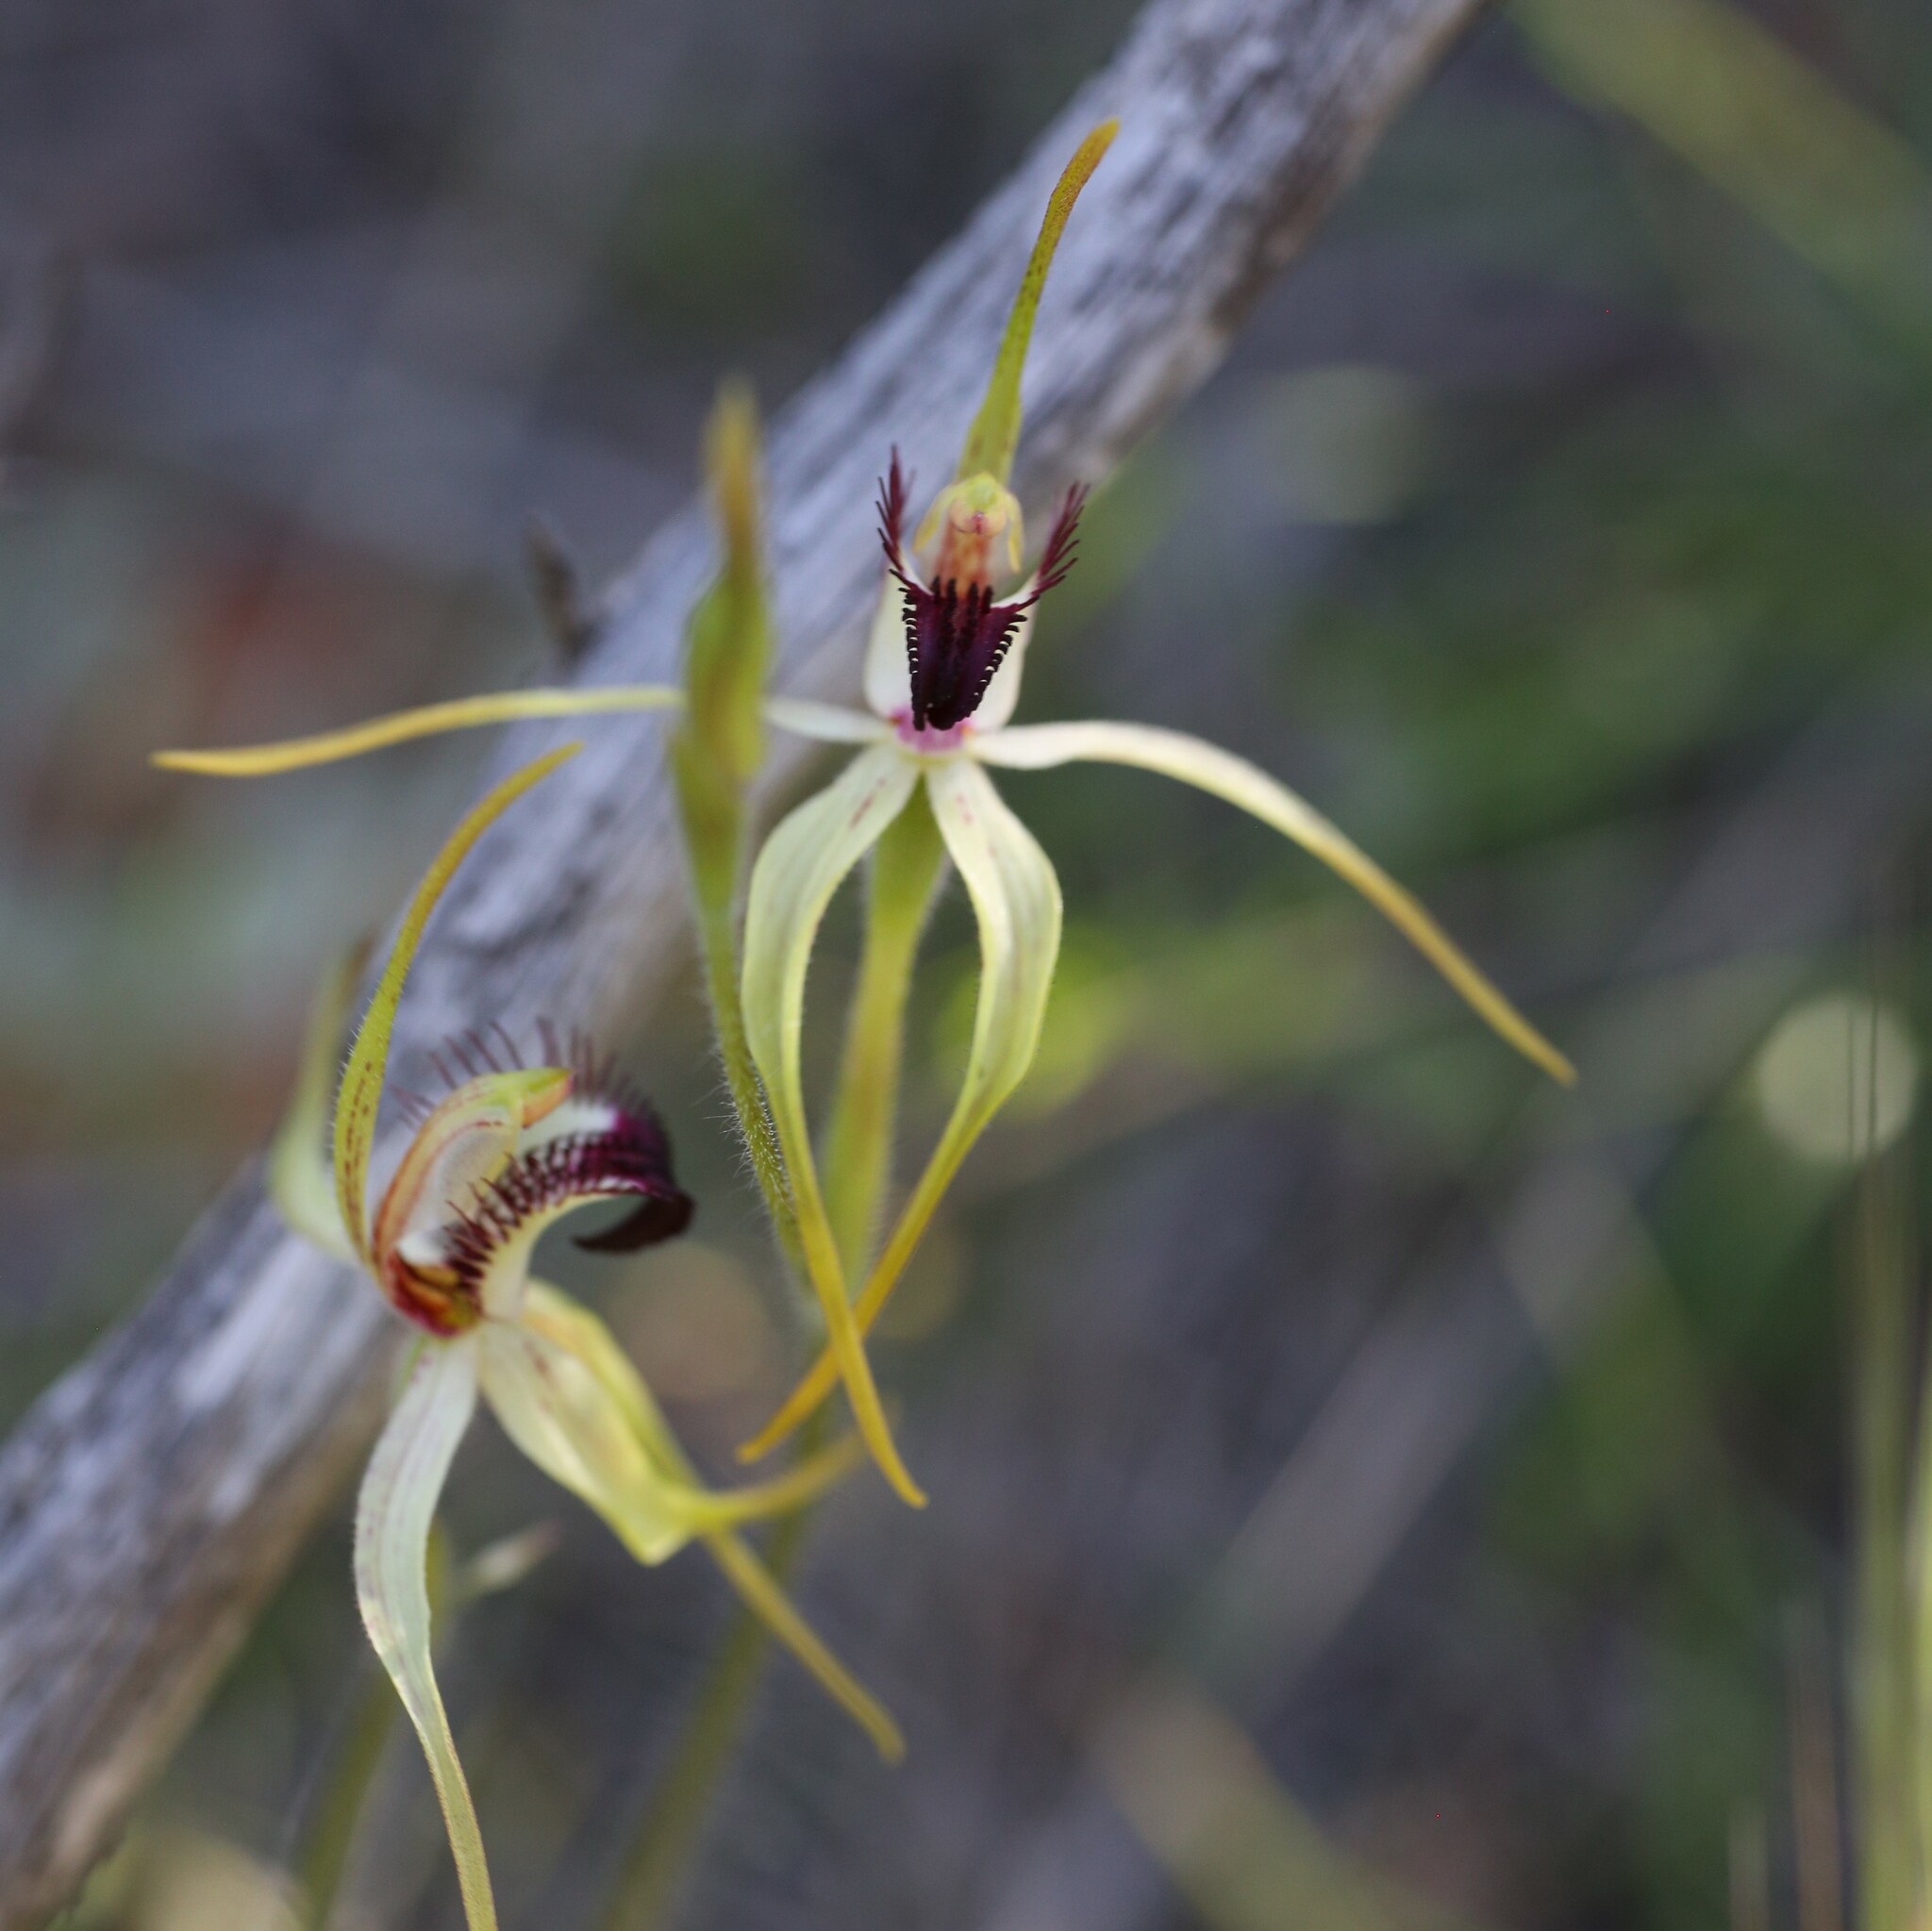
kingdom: Plantae
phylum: Tracheophyta
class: Liliopsida
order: Asparagales
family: Orchidaceae
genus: Caladenia
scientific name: Caladenia hoffmanii
